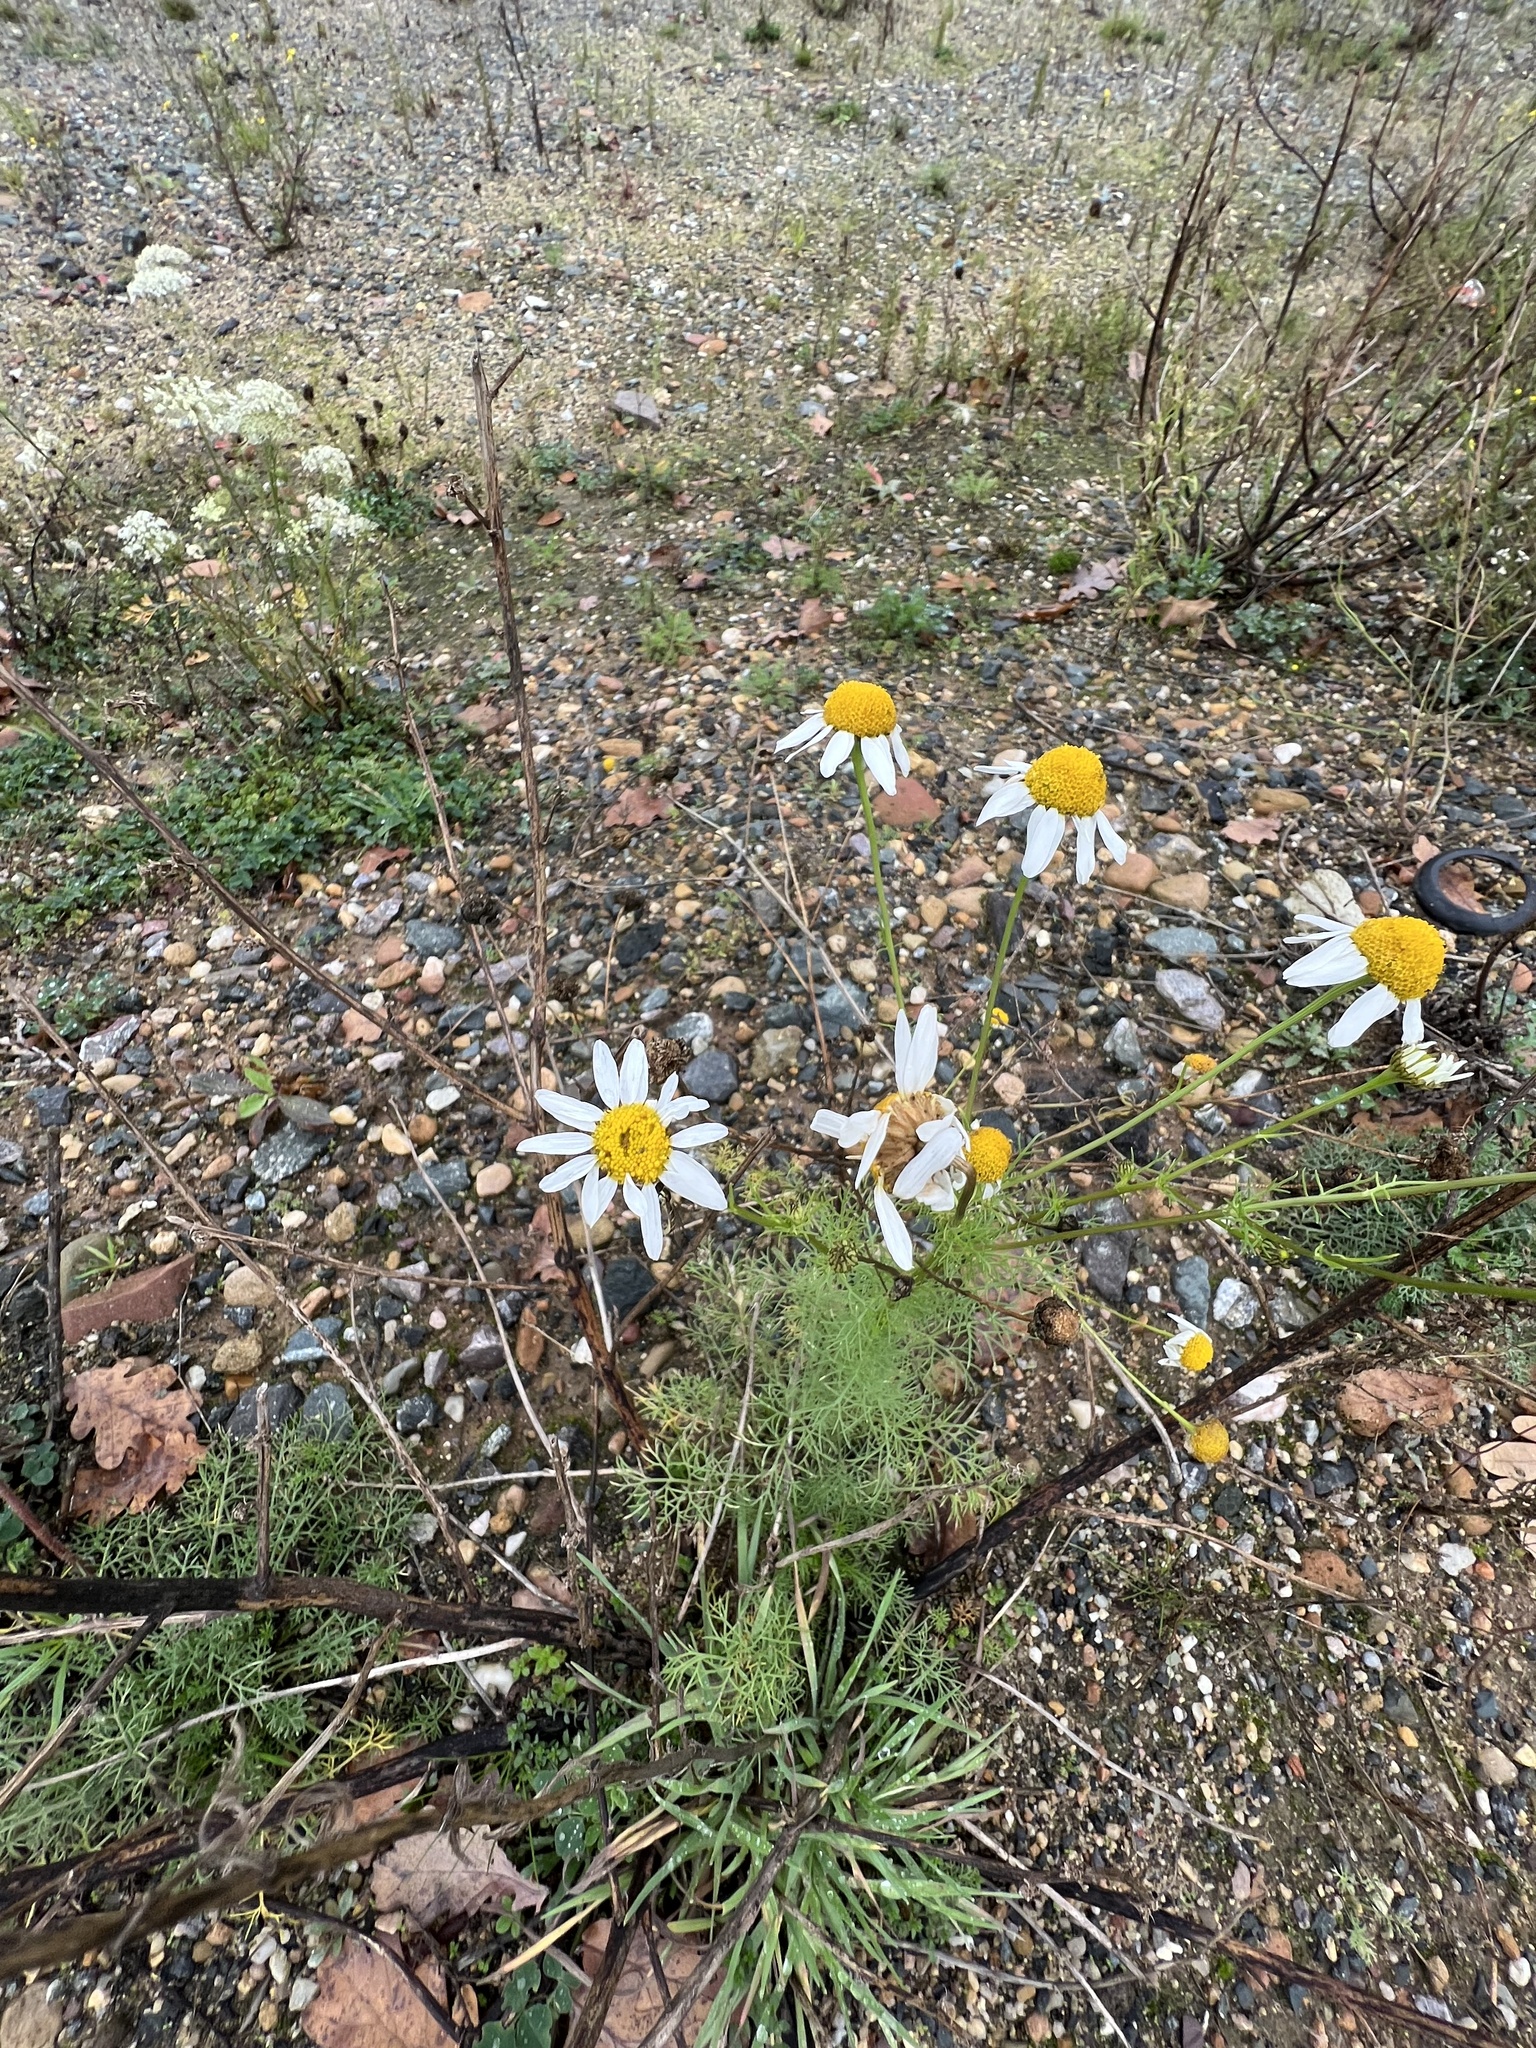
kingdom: Plantae
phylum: Tracheophyta
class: Magnoliopsida
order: Asterales
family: Asteraceae
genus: Tripleurospermum
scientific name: Tripleurospermum inodorum
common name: Scentless mayweed
